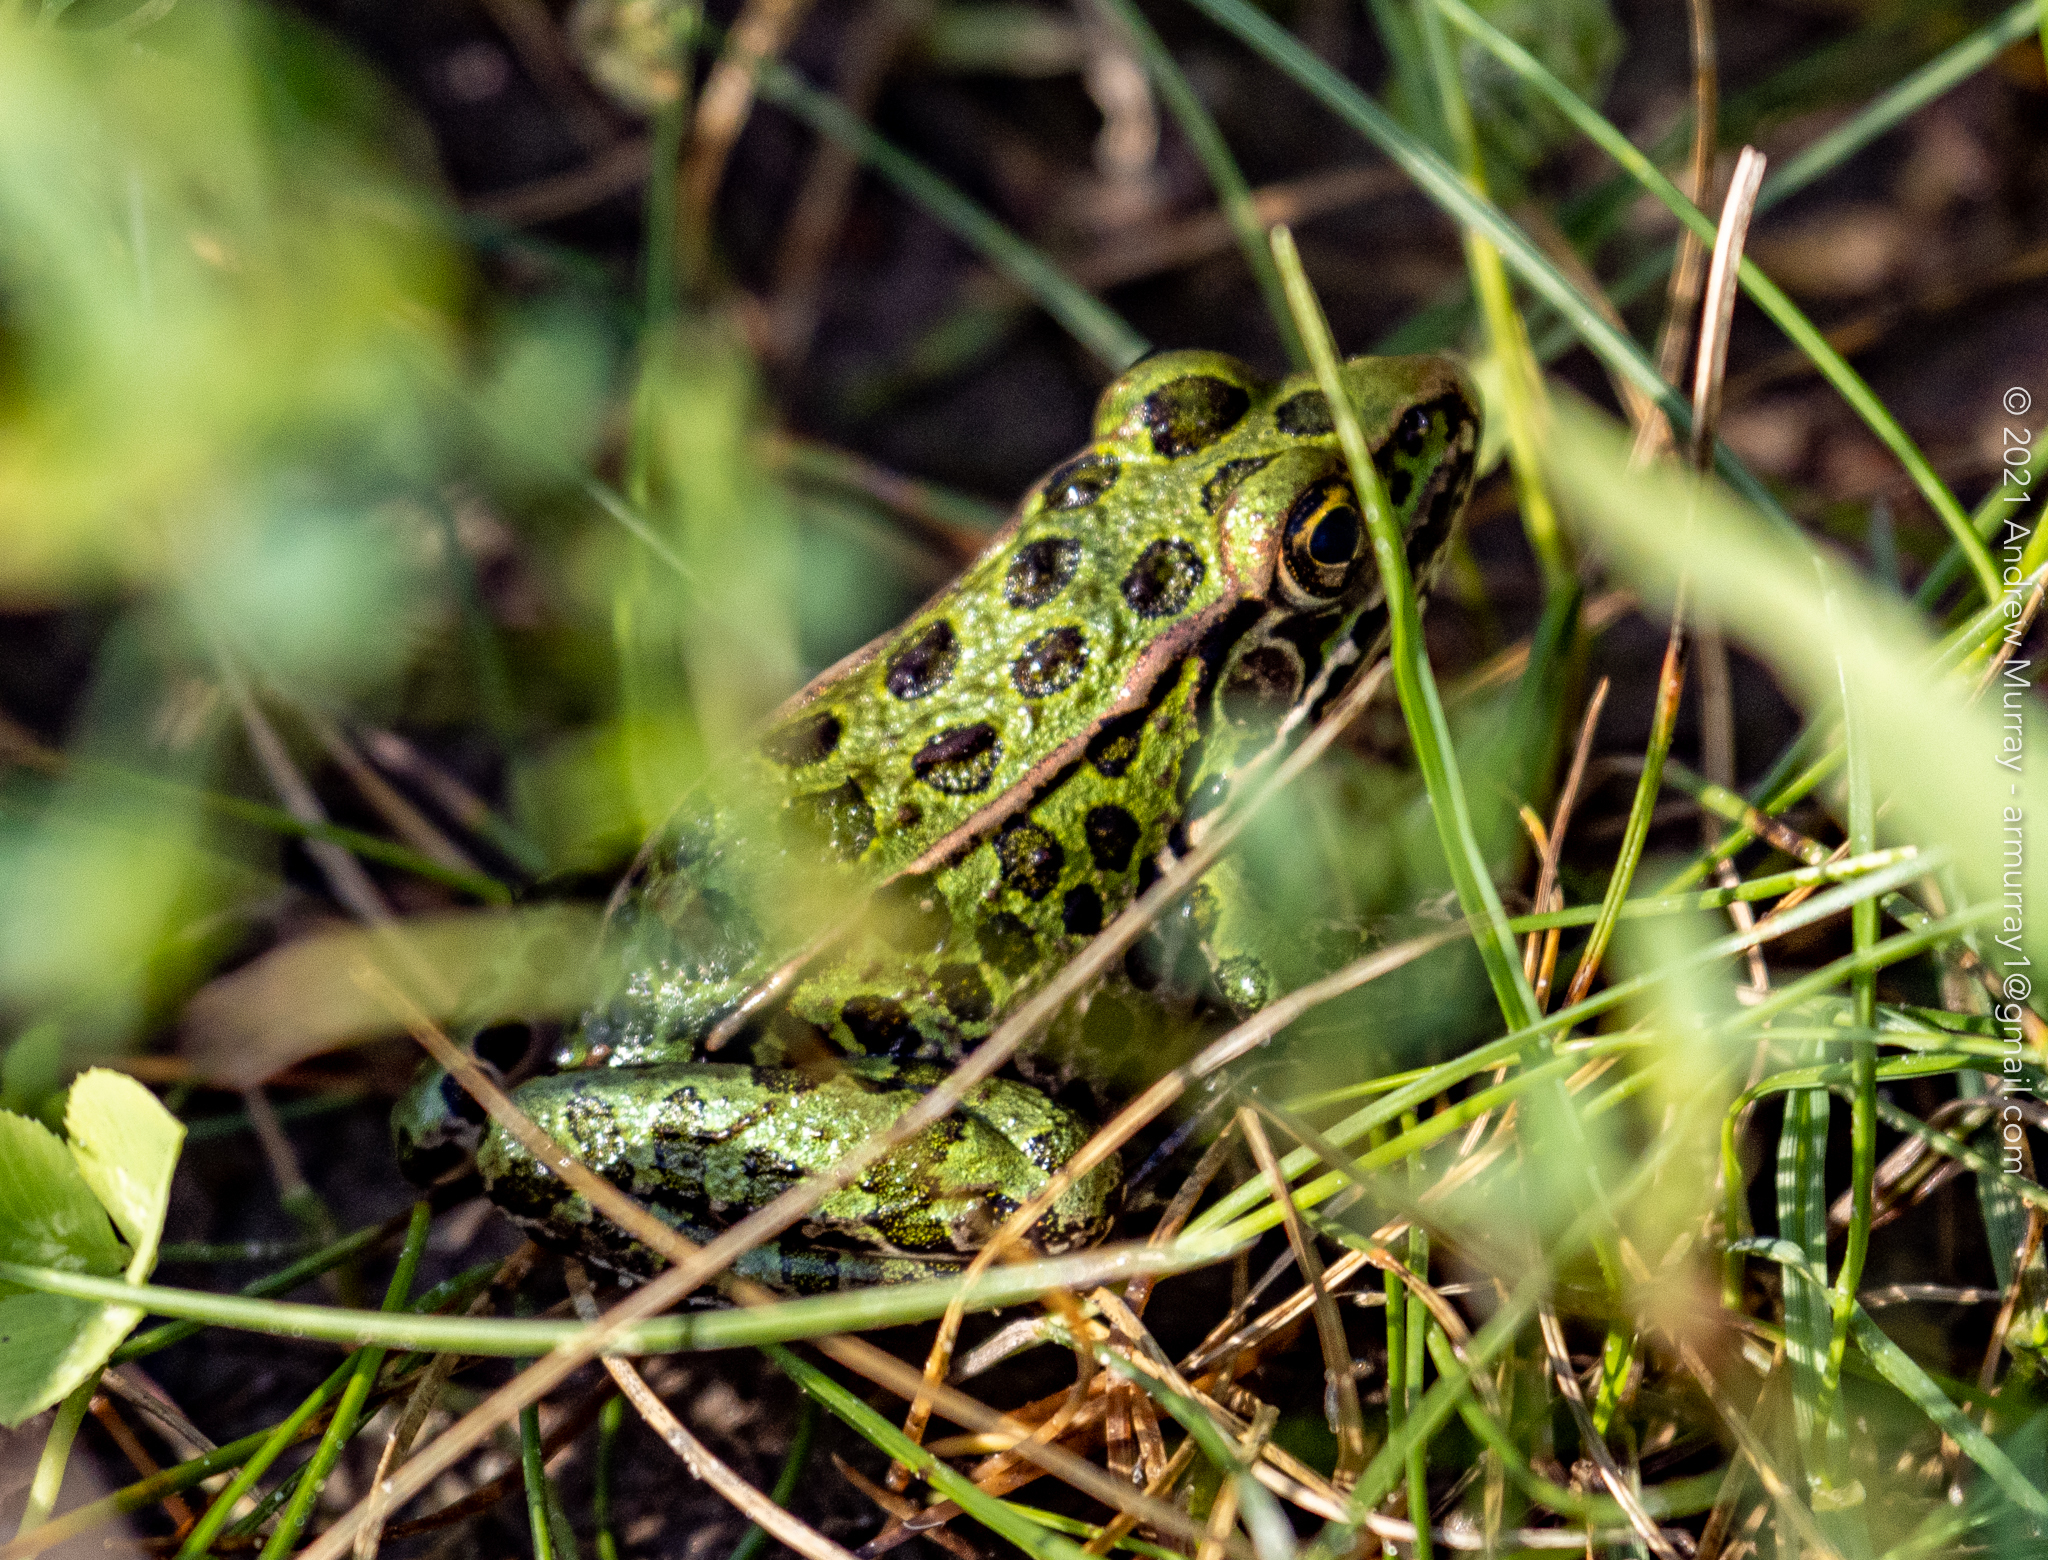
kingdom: Animalia
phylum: Chordata
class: Amphibia
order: Anura
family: Ranidae
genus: Lithobates
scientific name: Lithobates pipiens
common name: Northern leopard frog
